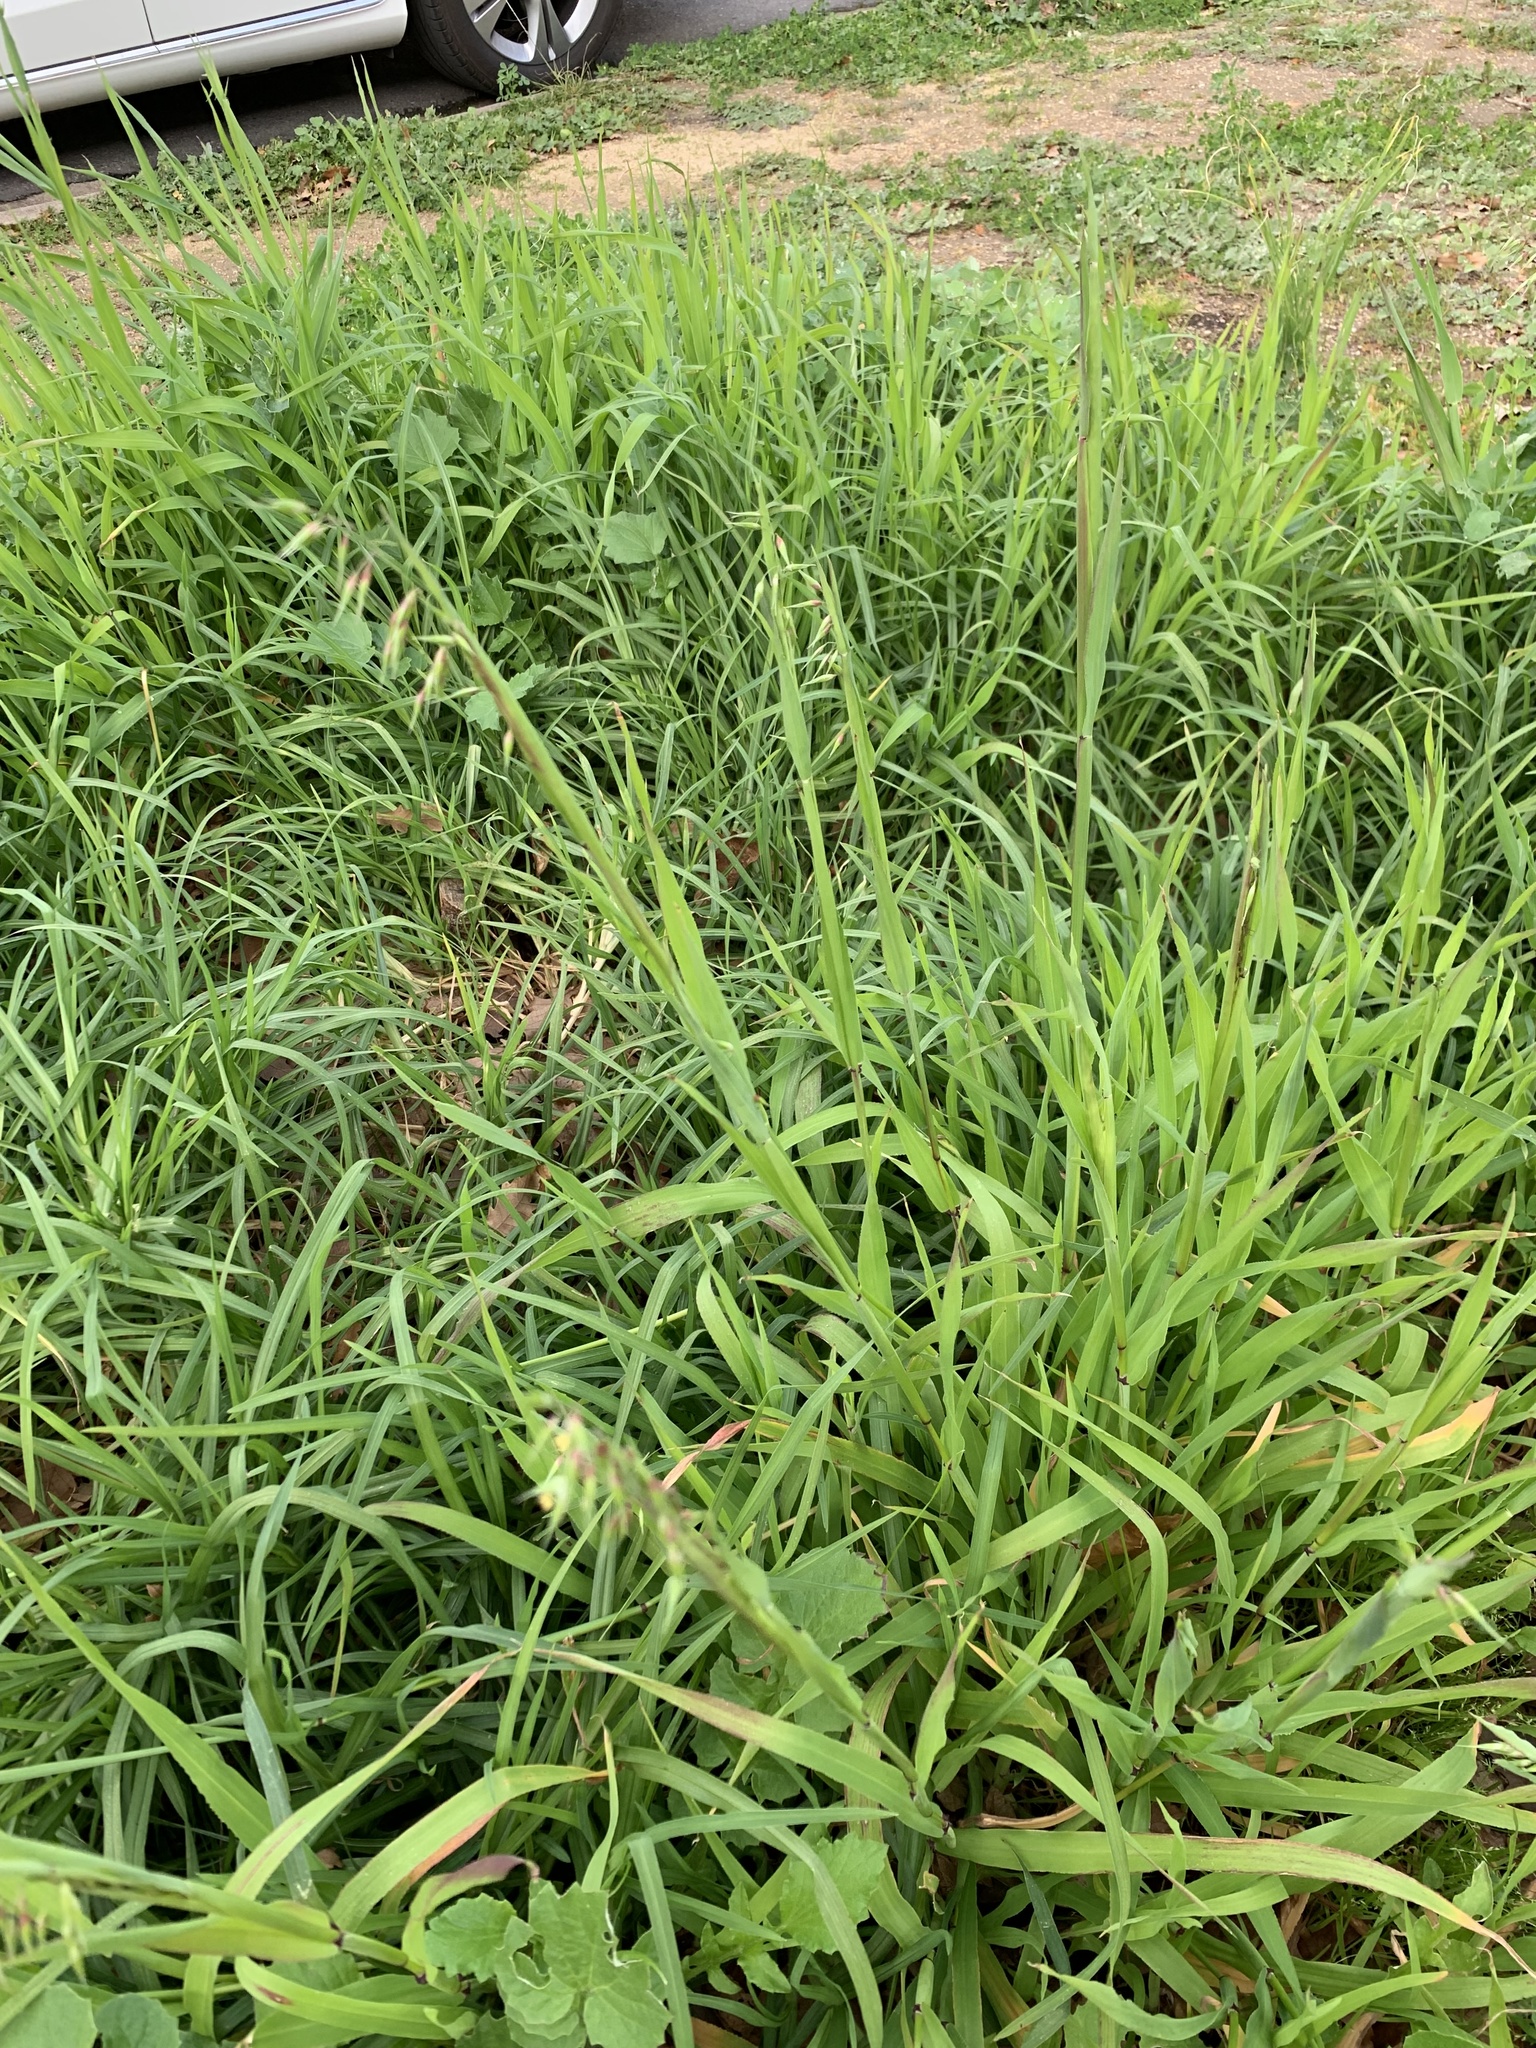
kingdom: Plantae
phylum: Tracheophyta
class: Liliopsida
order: Poales
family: Poaceae
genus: Ehrharta
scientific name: Ehrharta longiflora
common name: Longflowered veldtgrass
